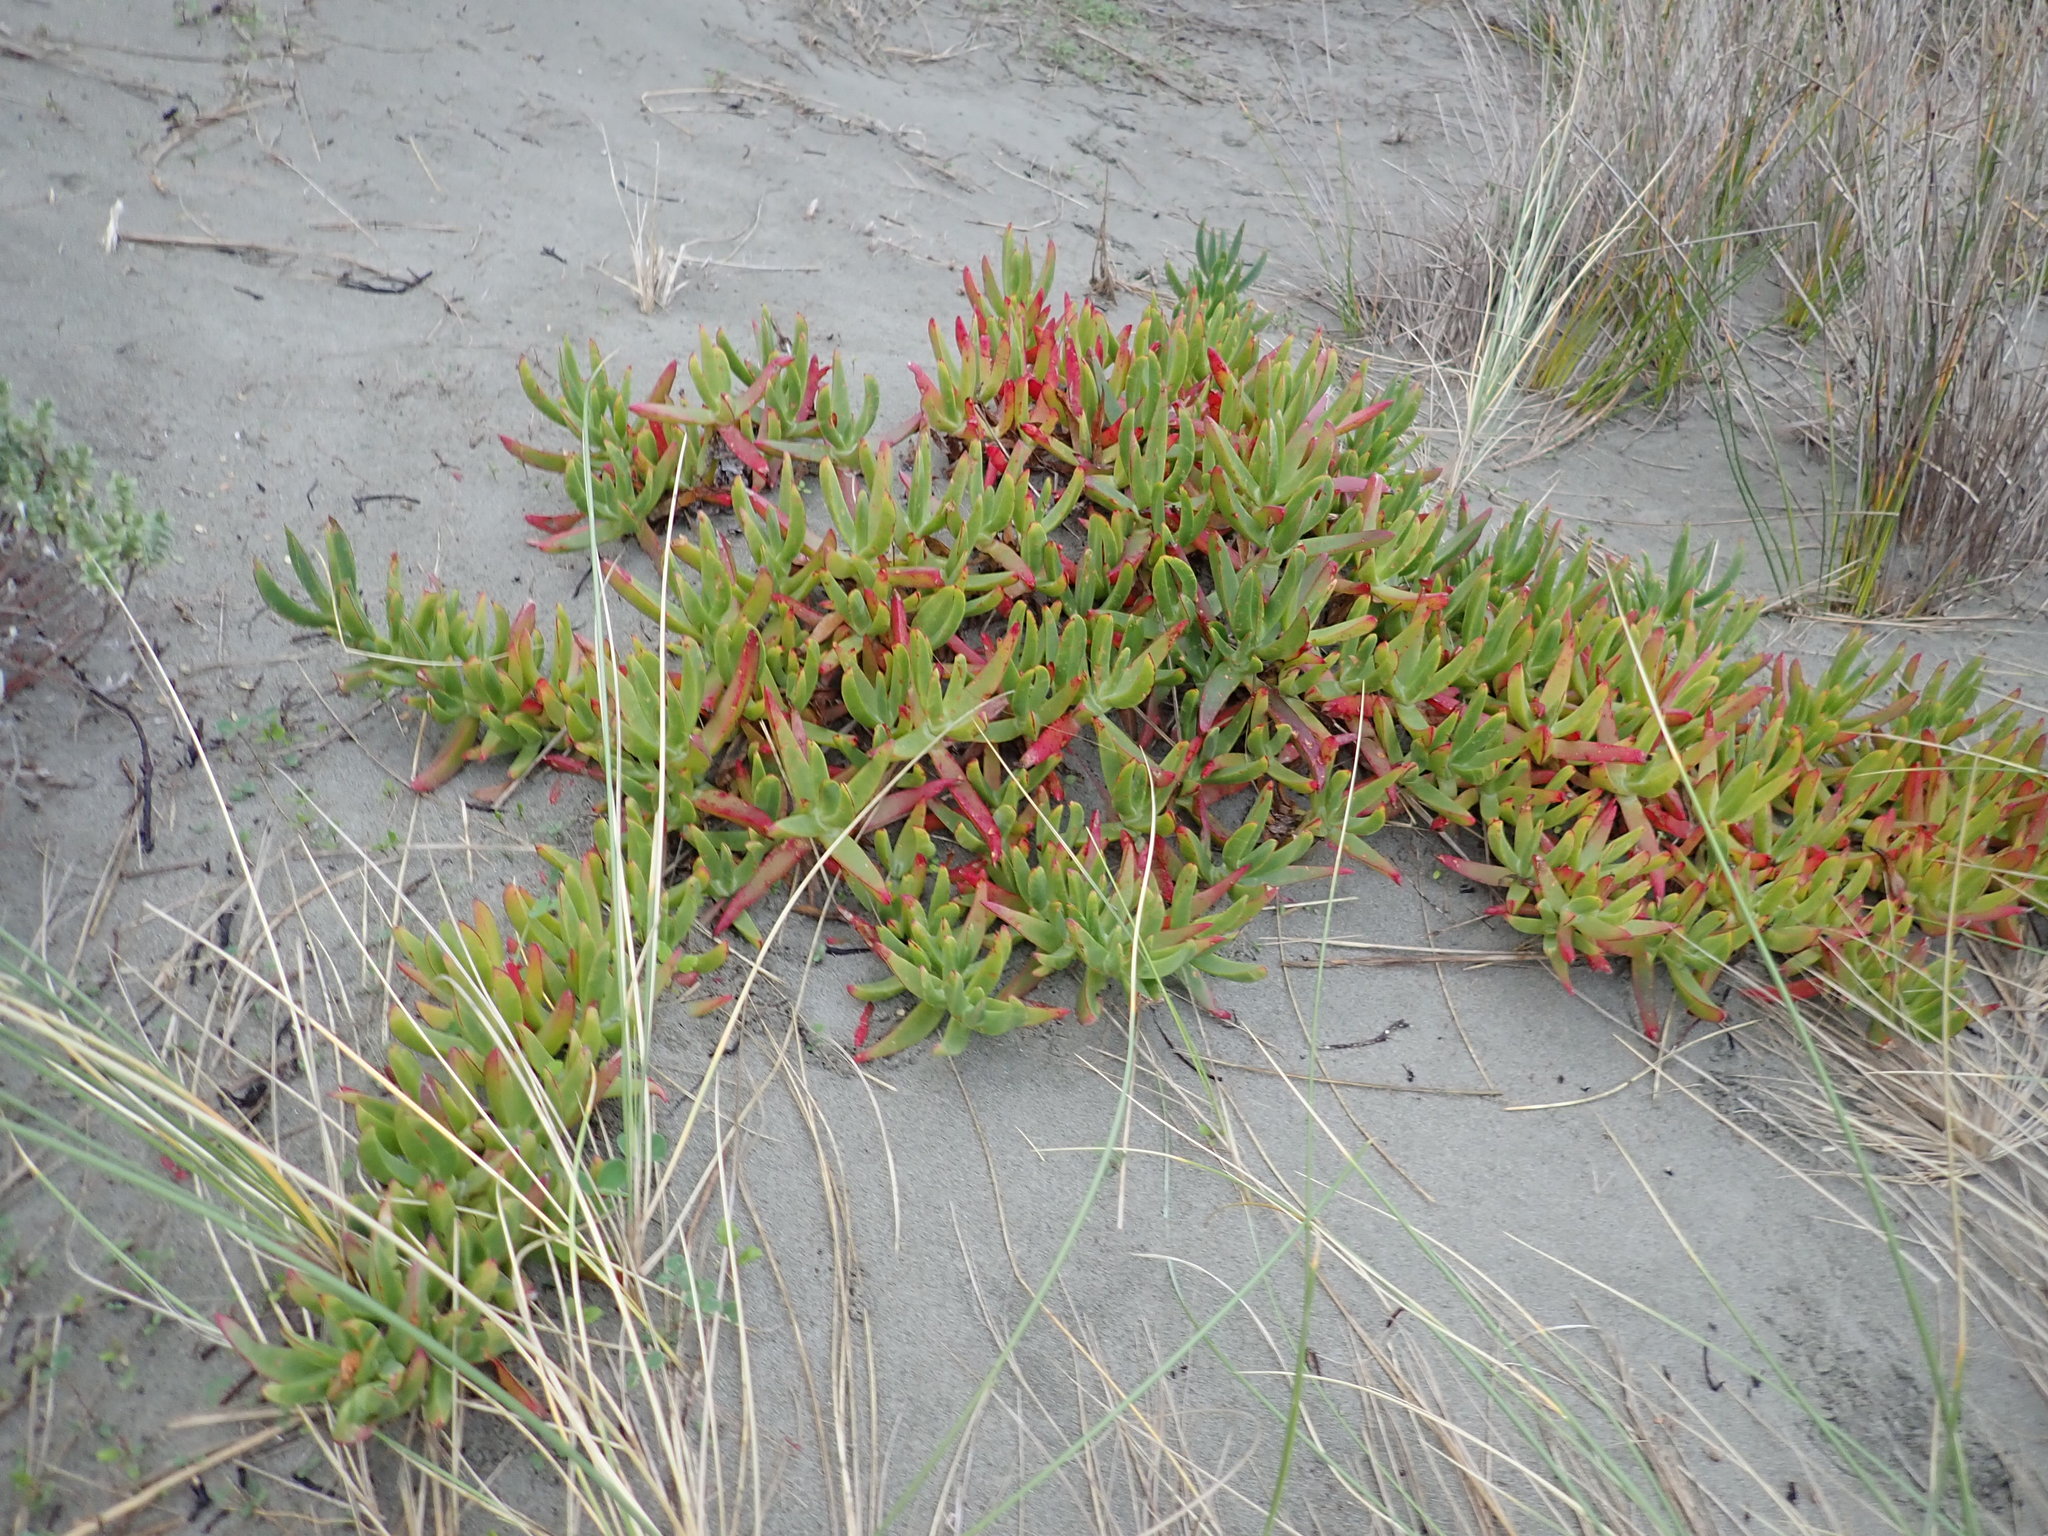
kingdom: Plantae
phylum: Tracheophyta
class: Magnoliopsida
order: Caryophyllales
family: Aizoaceae
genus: Carpobrotus
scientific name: Carpobrotus
